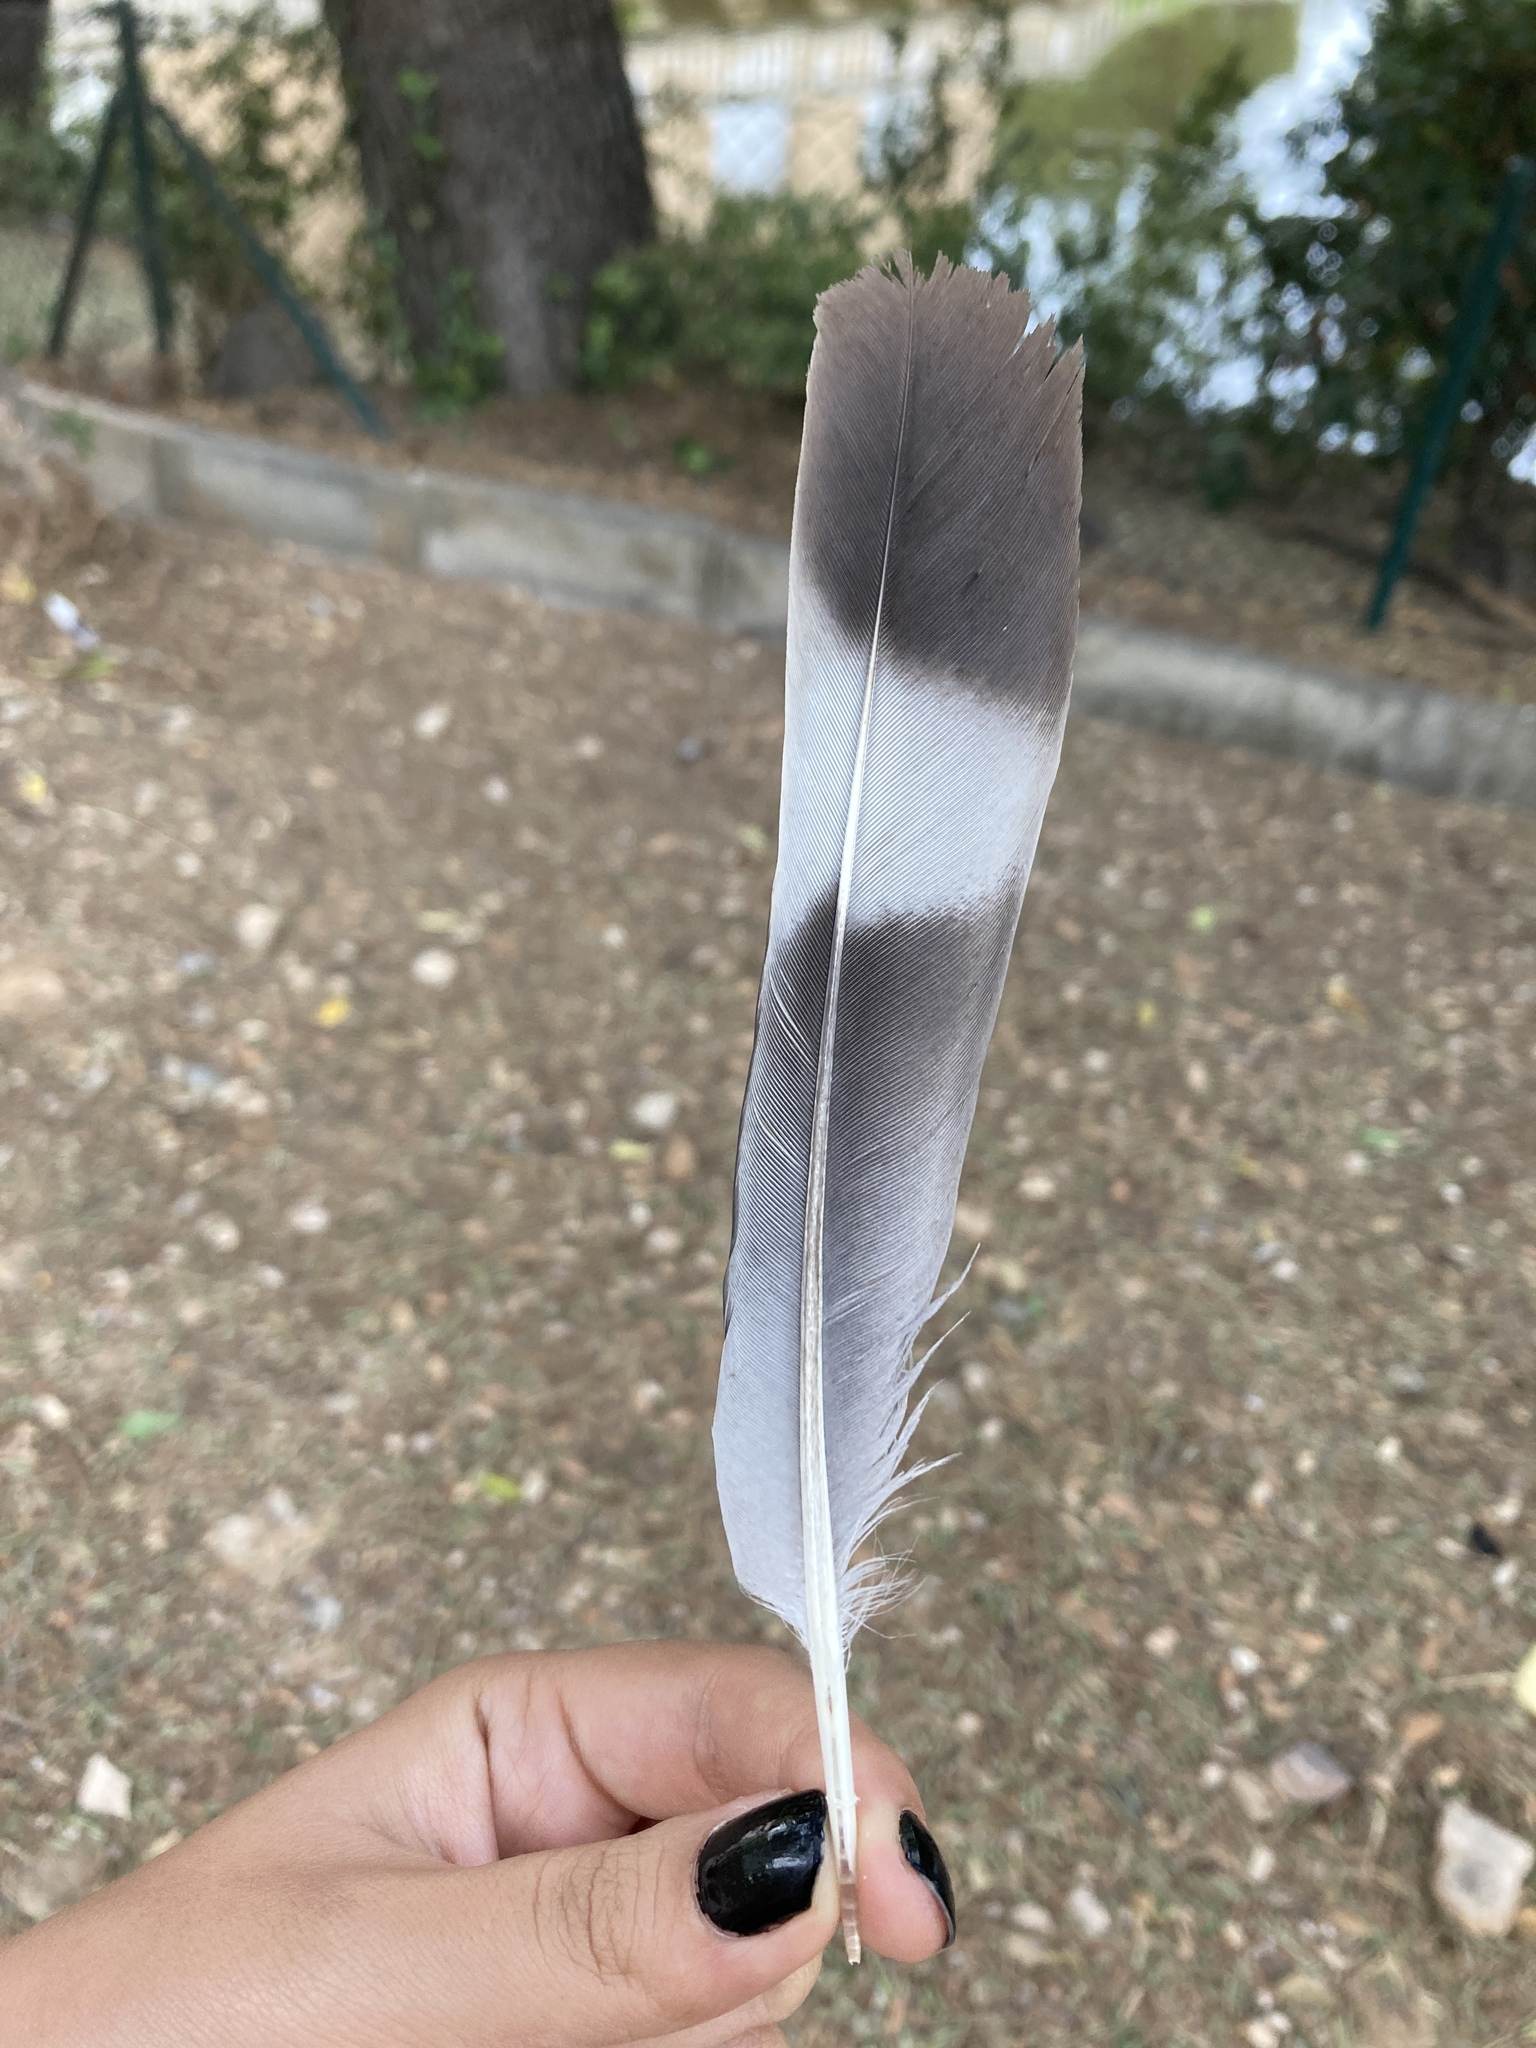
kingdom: Animalia
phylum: Chordata
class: Aves
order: Columbiformes
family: Columbidae
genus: Columba
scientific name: Columba palumbus
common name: Common wood pigeon
